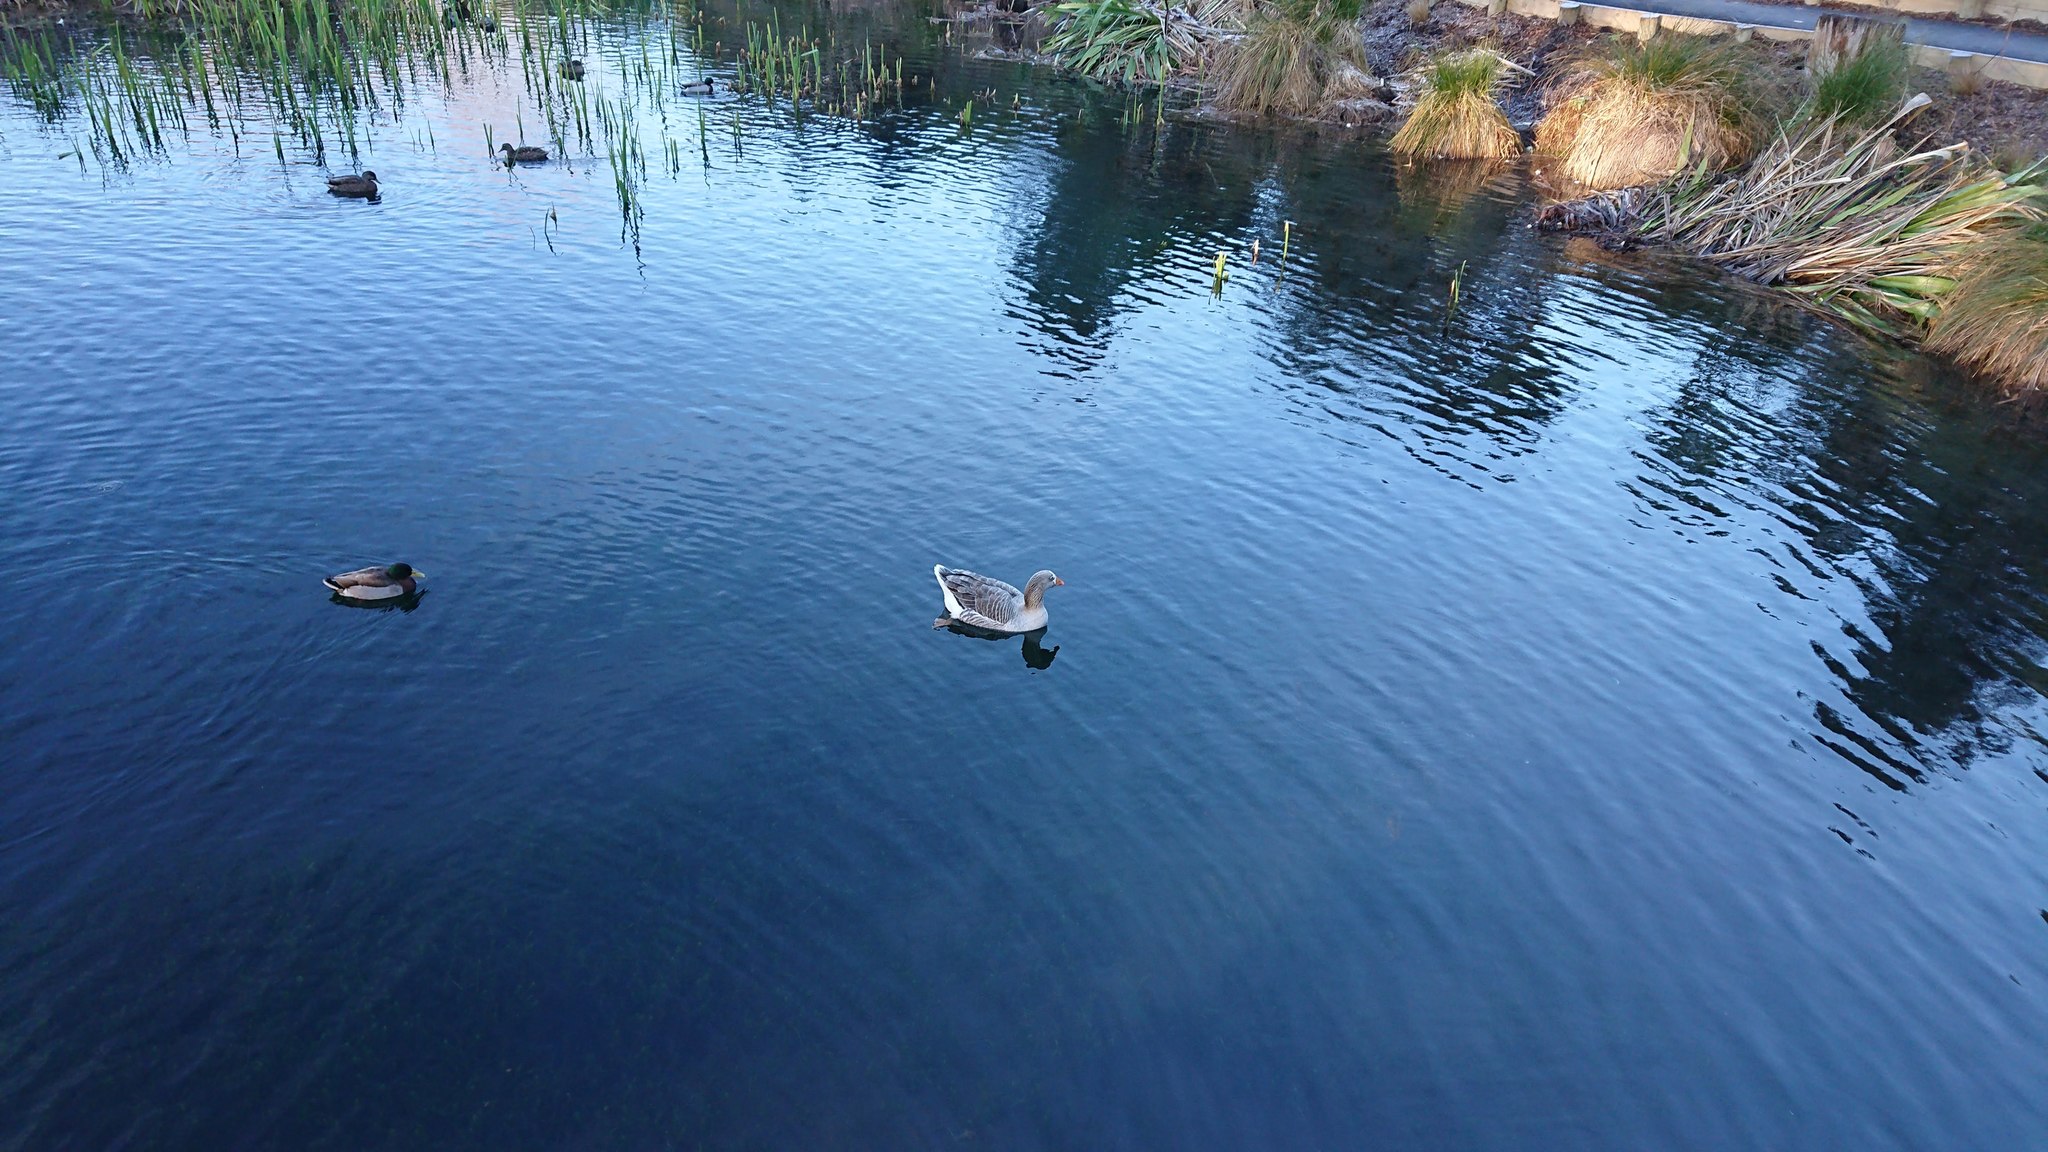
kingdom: Animalia
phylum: Chordata
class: Aves
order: Anseriformes
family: Anatidae
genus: Anser
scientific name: Anser anser
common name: Greylag goose
